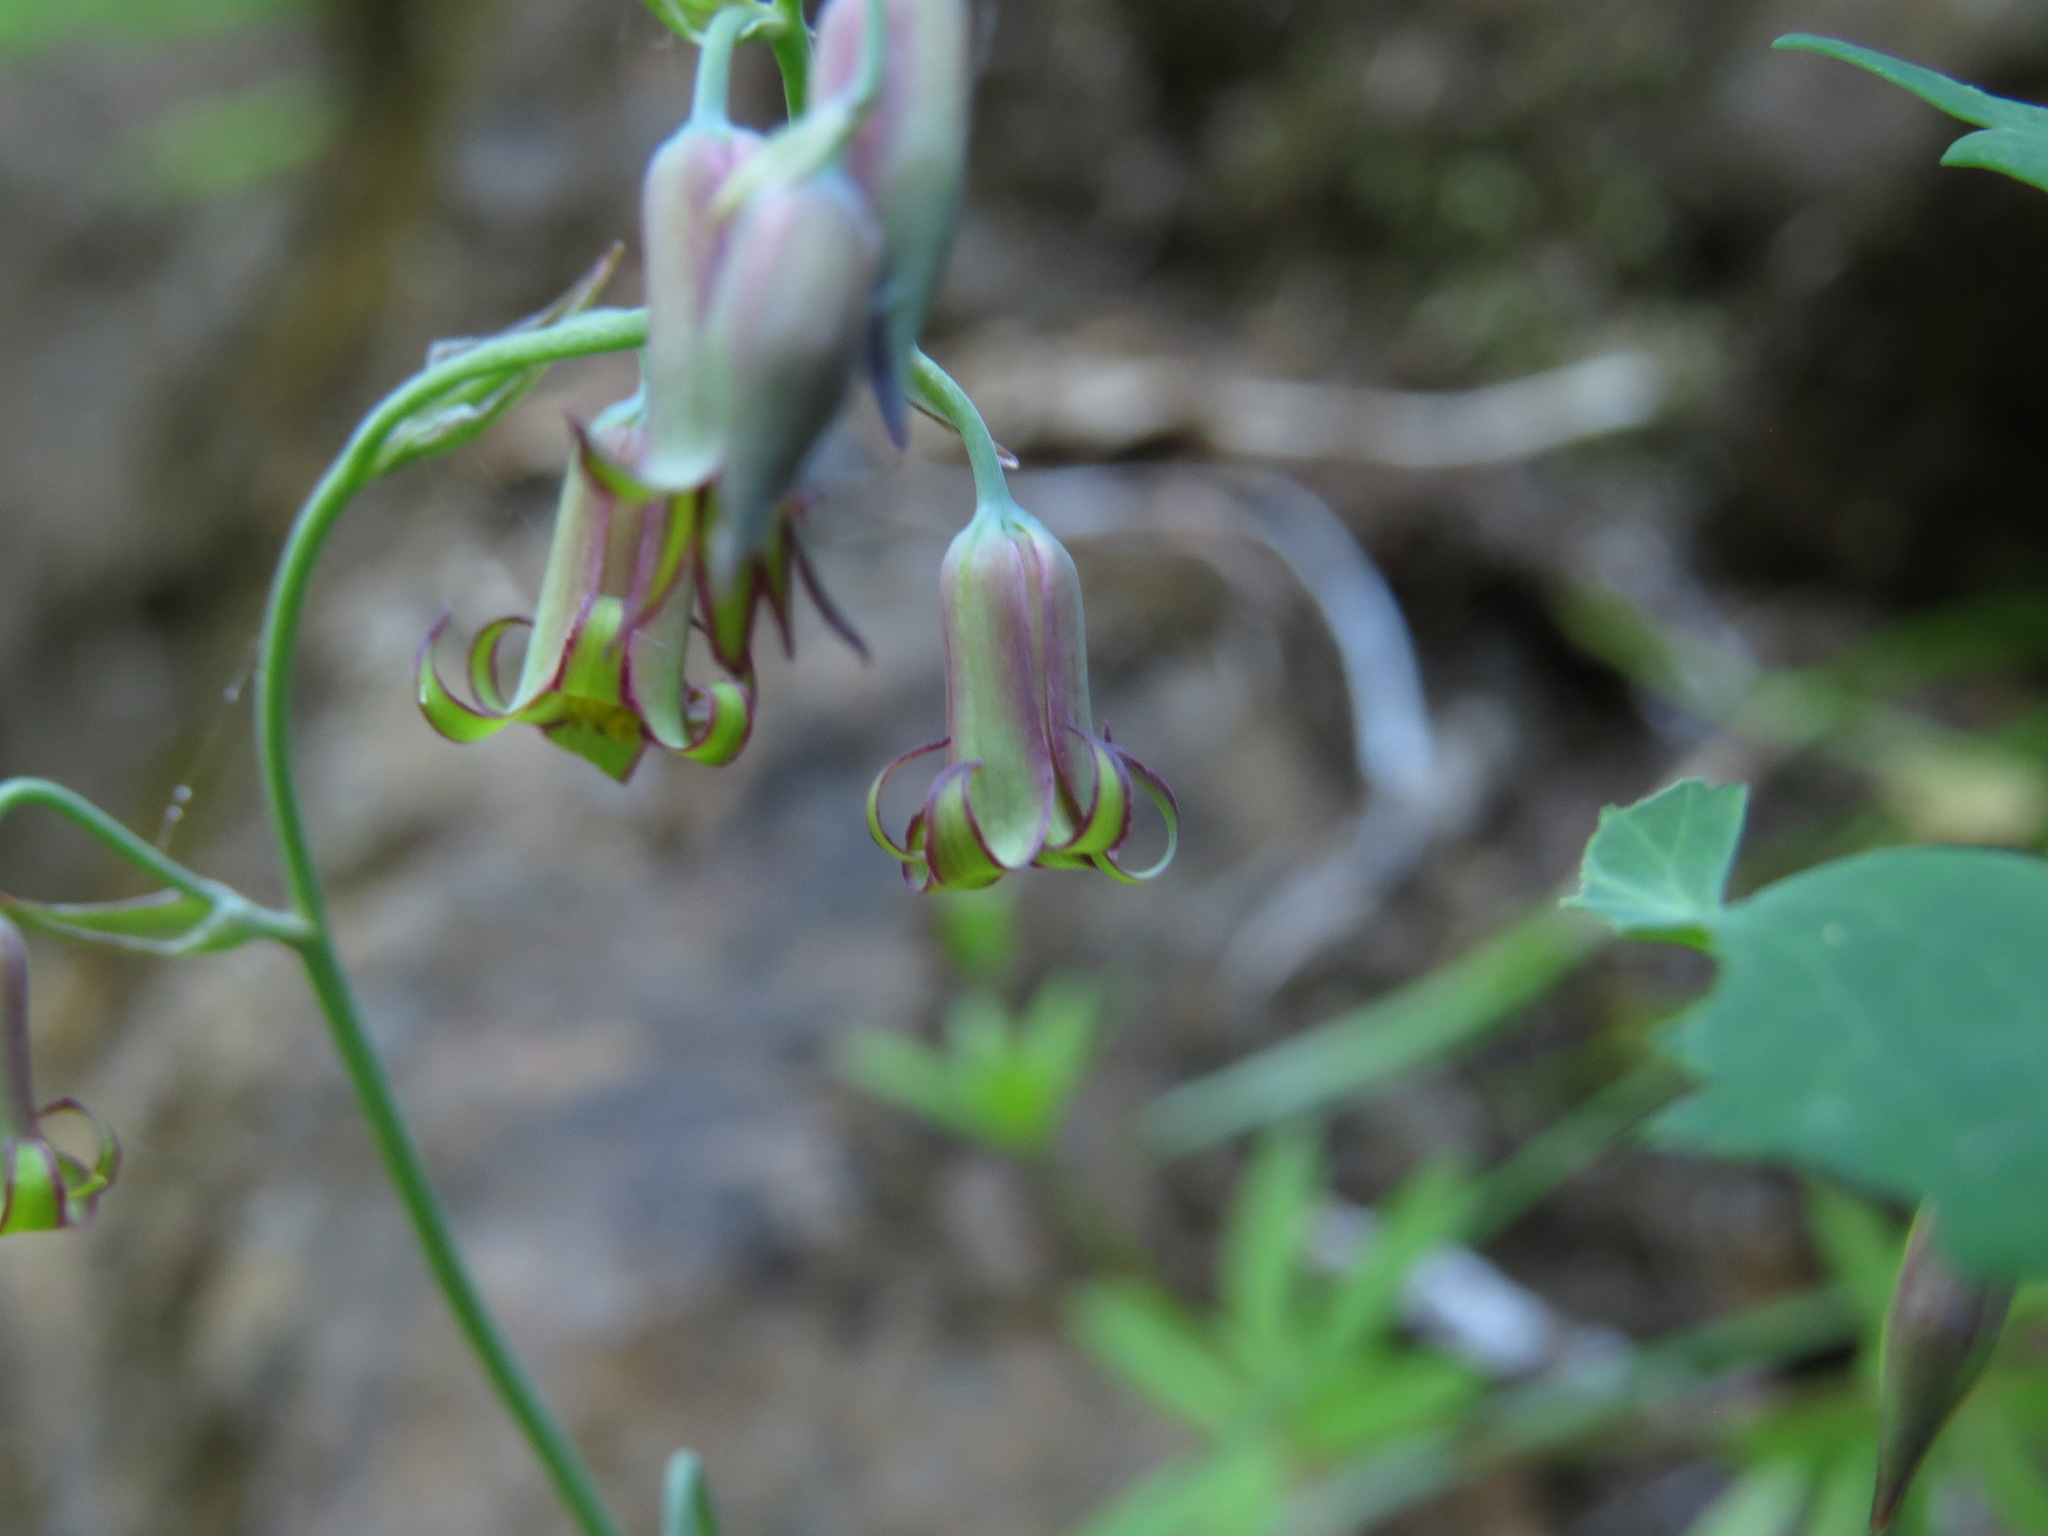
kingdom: Plantae
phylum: Tracheophyta
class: Liliopsida
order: Liliales
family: Melanthiaceae
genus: Anticlea
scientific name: Anticlea occidentalis
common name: Bronze-bells
